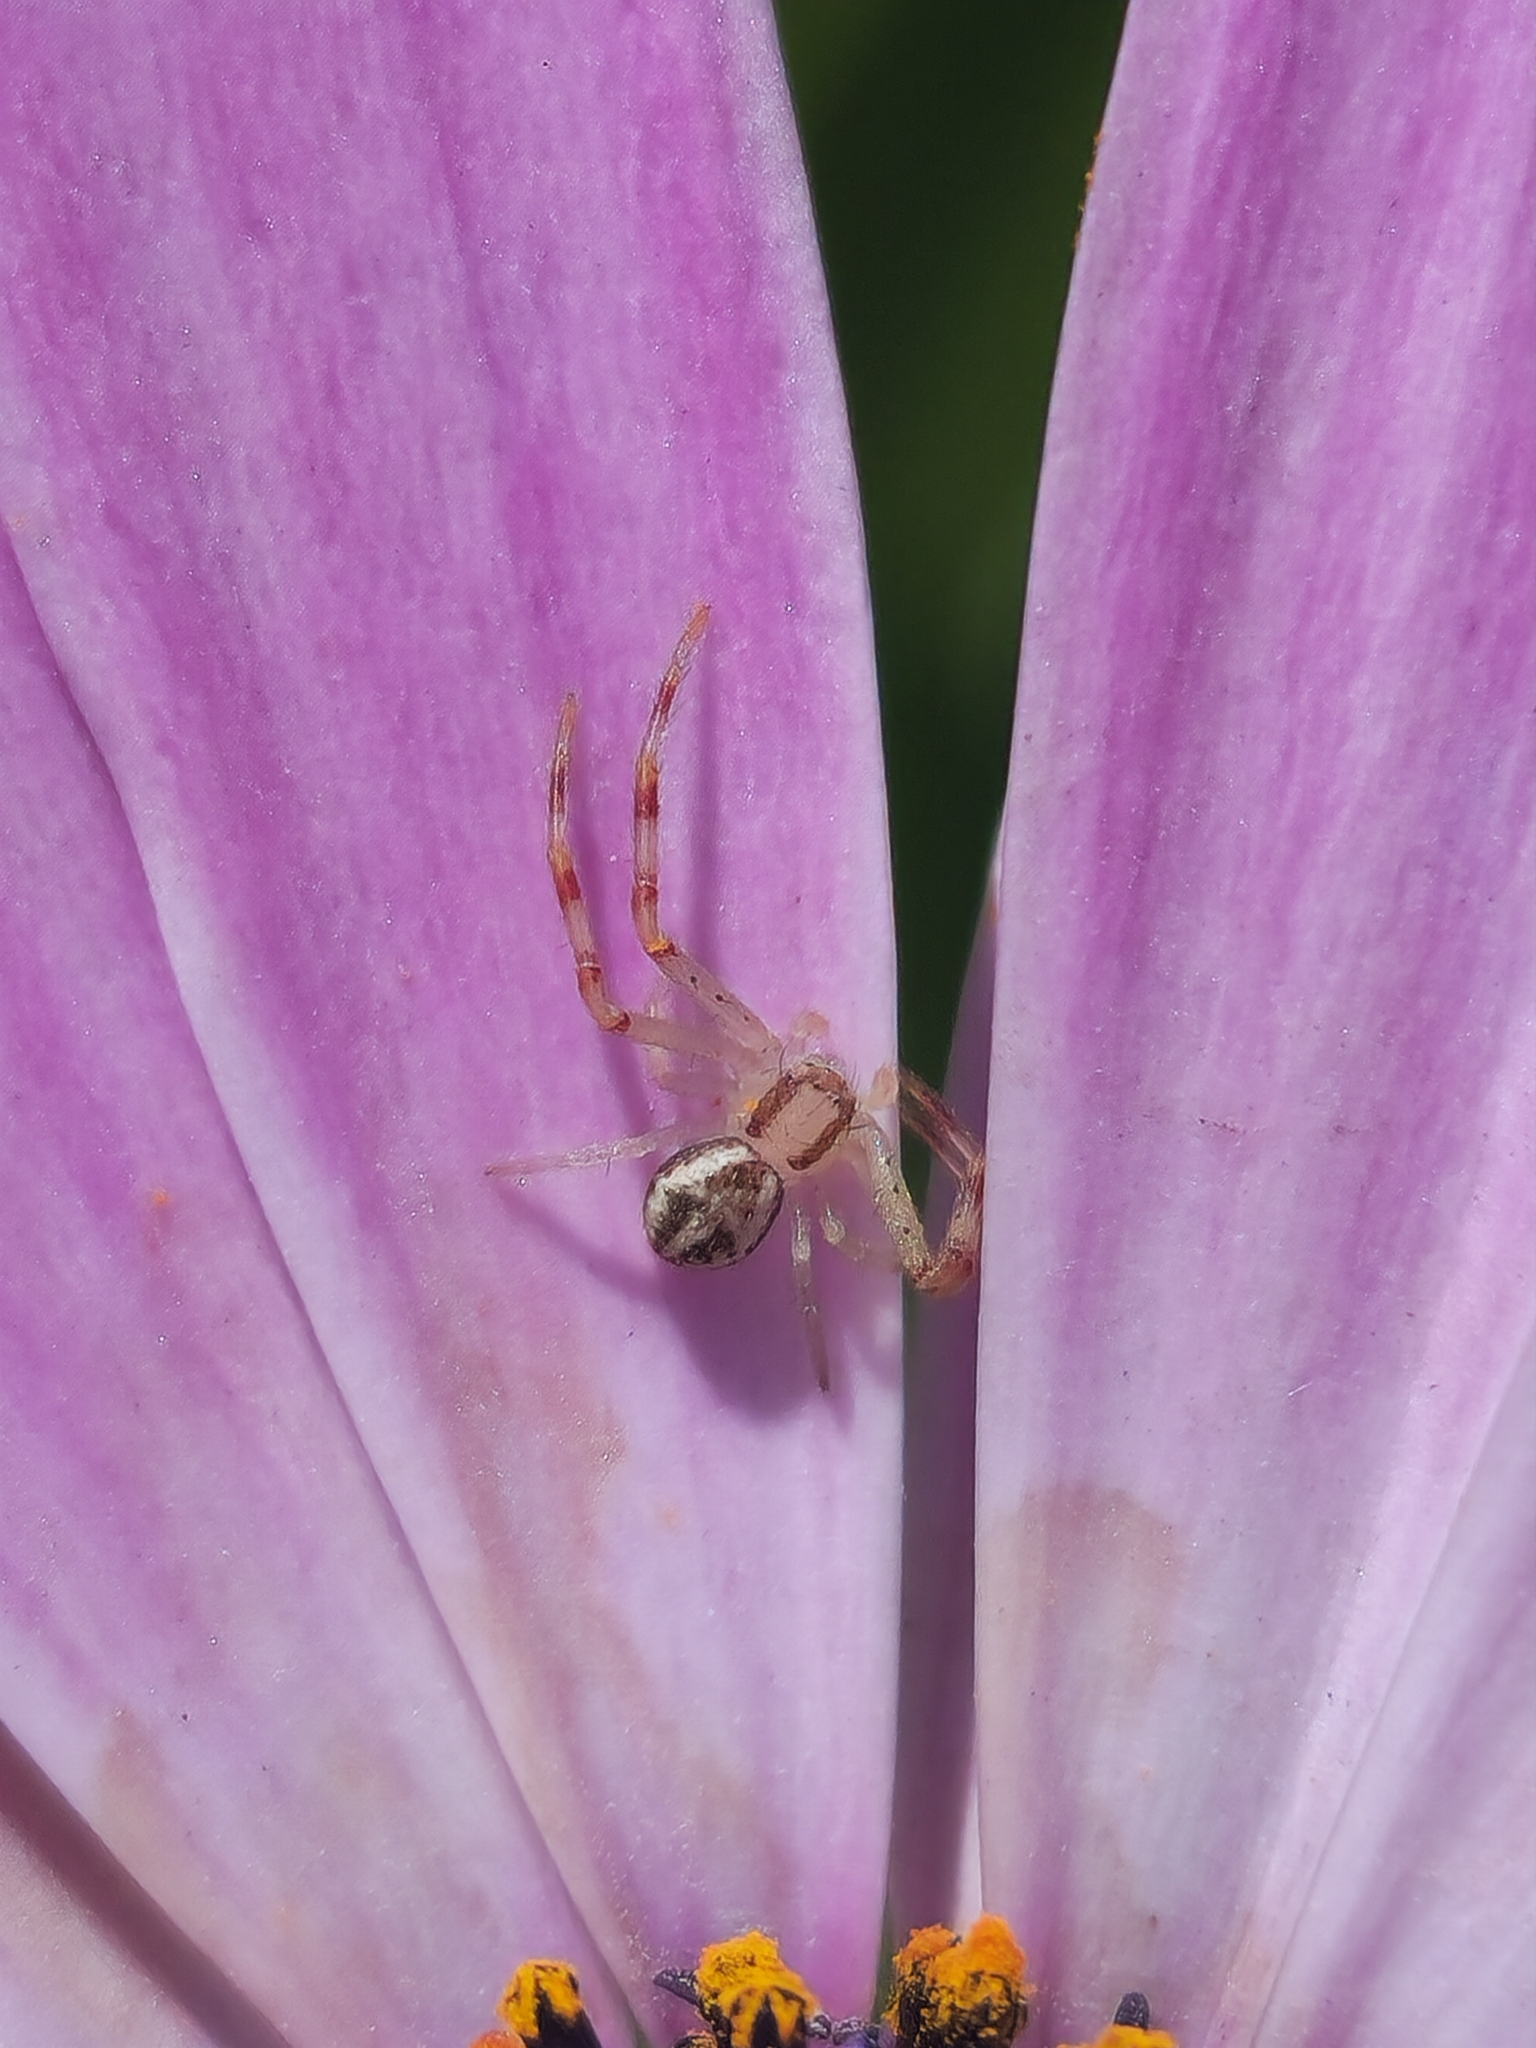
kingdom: Animalia
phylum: Arthropoda
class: Arachnida
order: Araneae
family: Thomisidae
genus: Misumenops
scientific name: Misumenops
